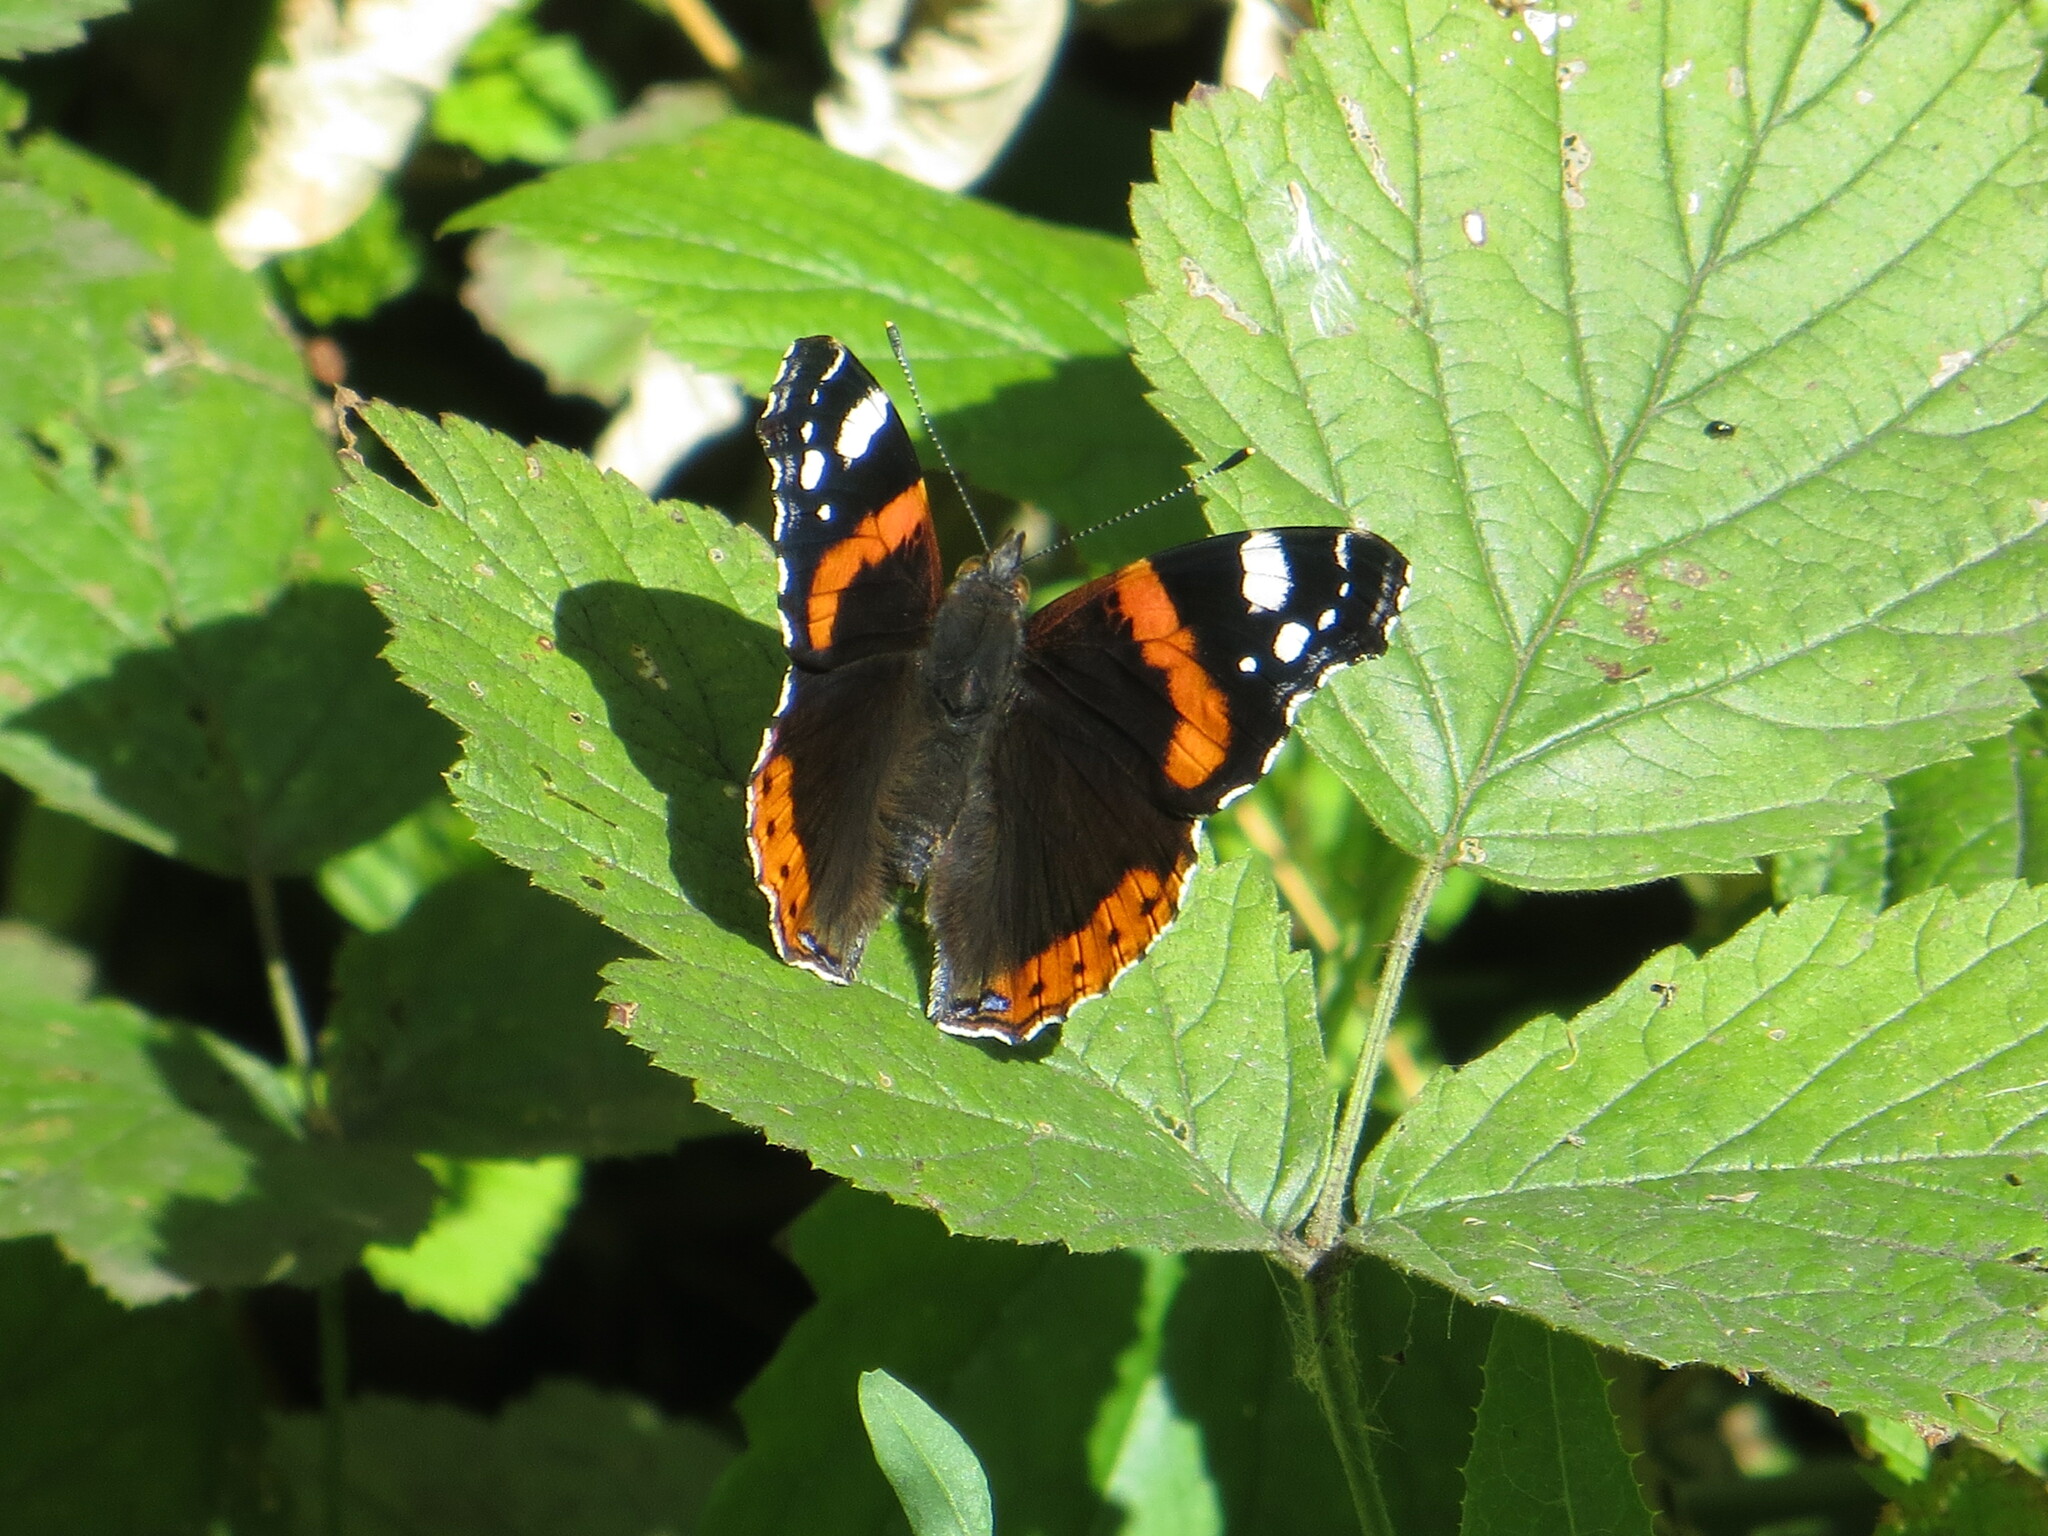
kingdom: Animalia
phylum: Arthropoda
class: Insecta
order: Lepidoptera
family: Nymphalidae
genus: Vanessa
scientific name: Vanessa atalanta
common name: Red admiral
